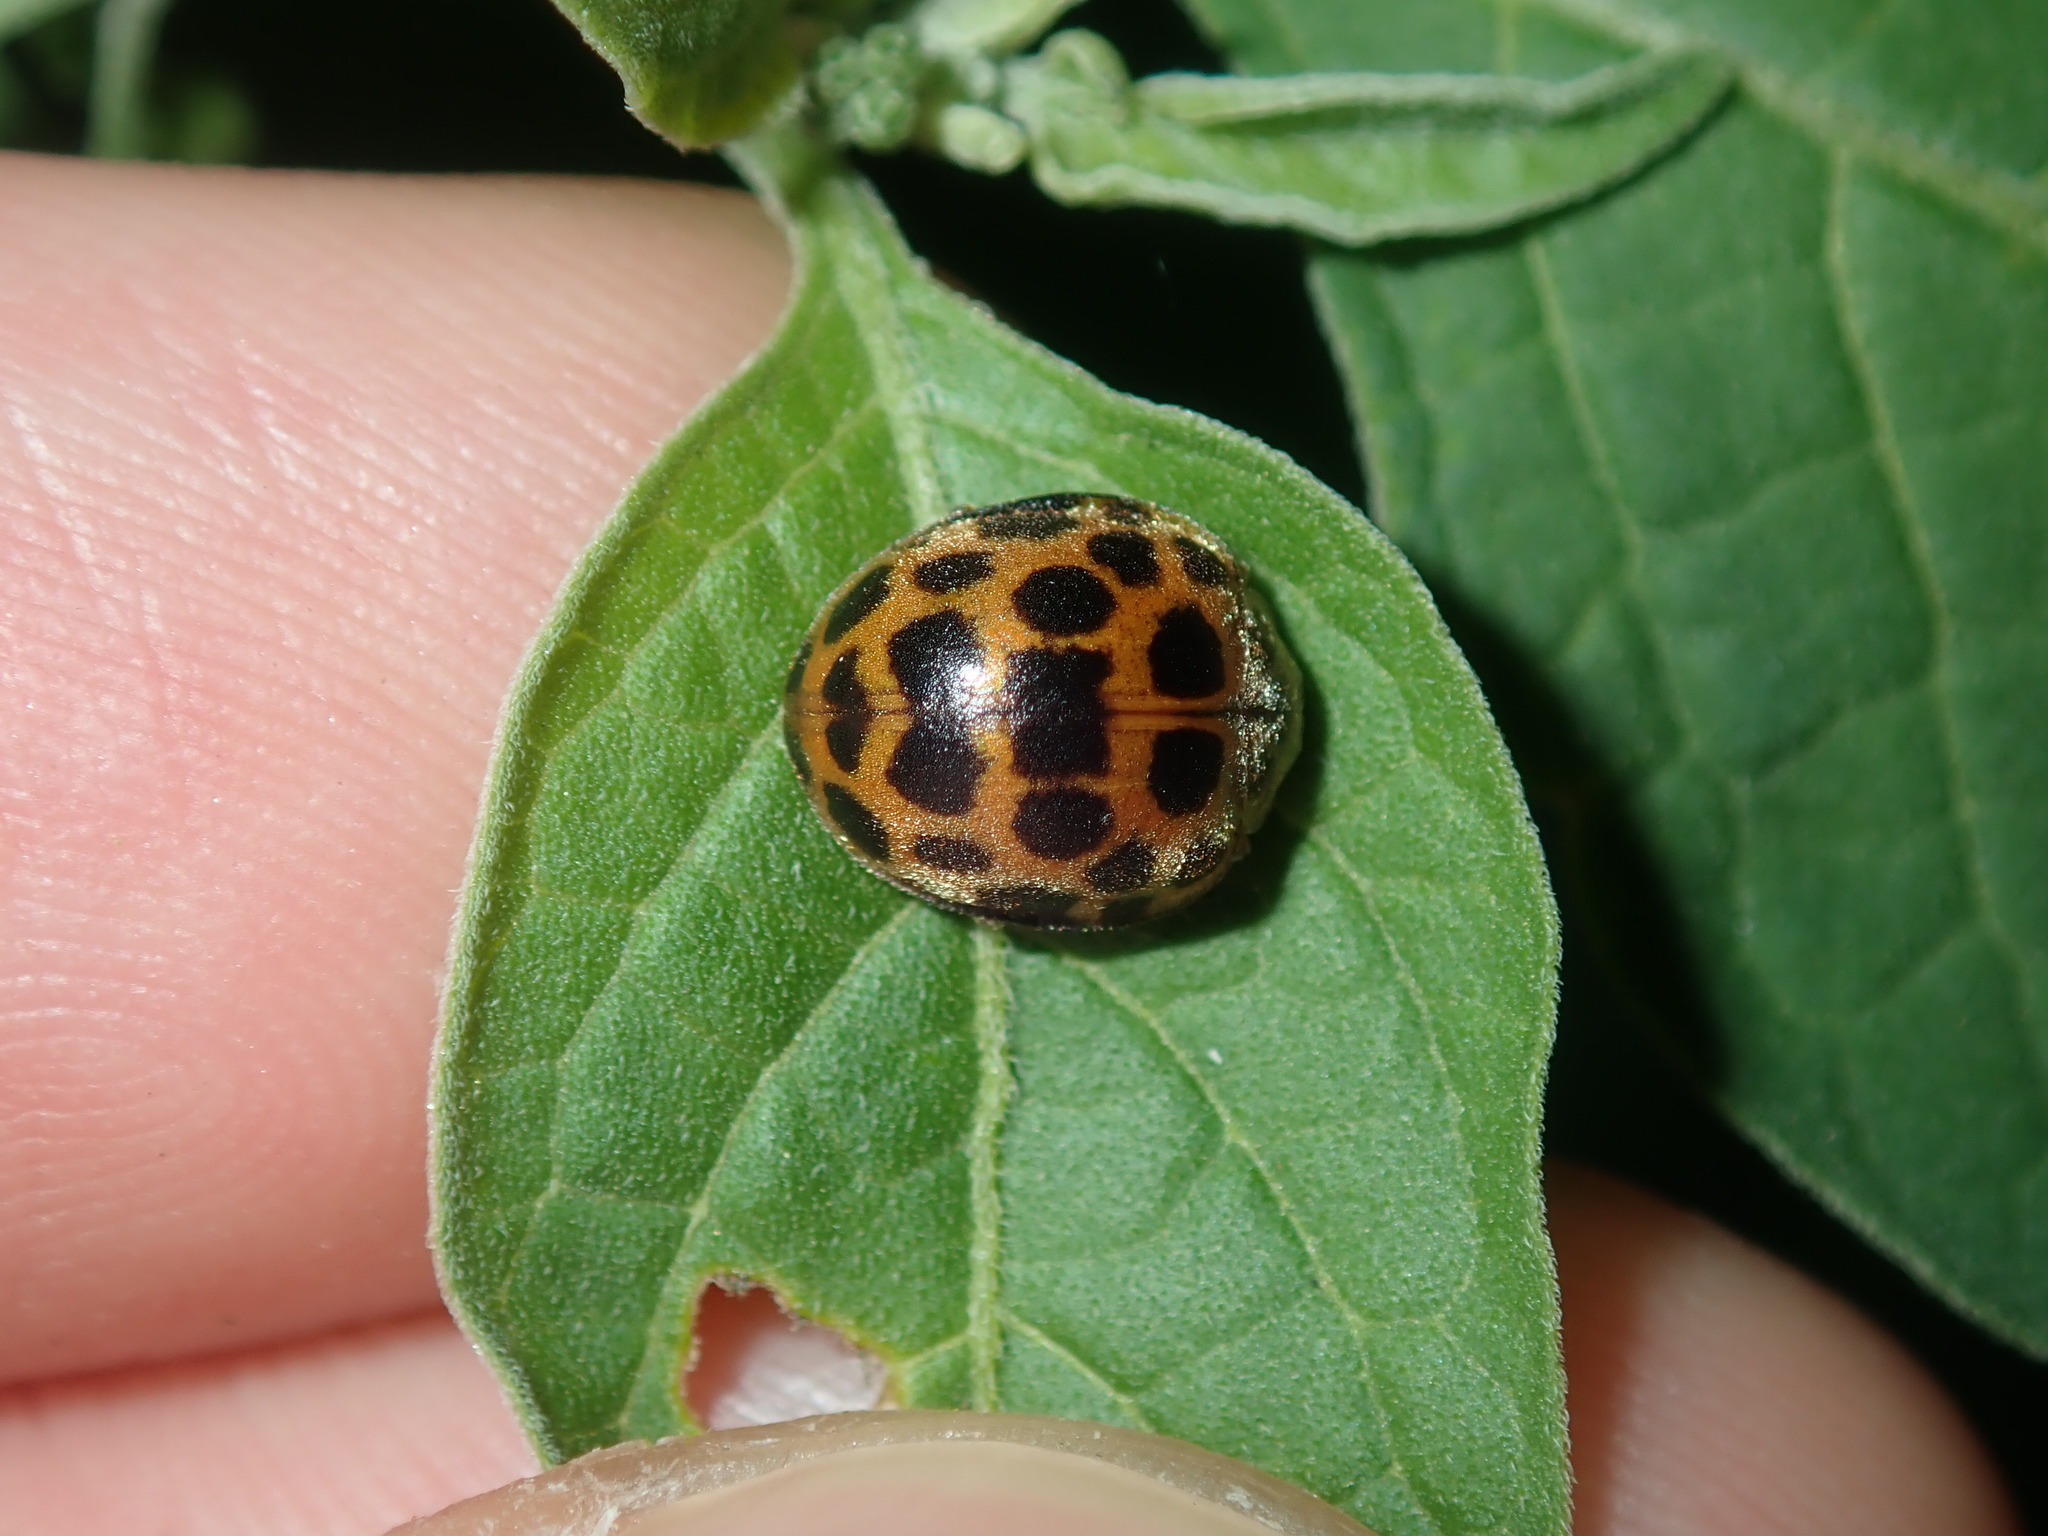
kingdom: Animalia
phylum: Arthropoda
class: Insecta
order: Coleoptera
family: Coccinellidae
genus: Henosepilachna
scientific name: Henosepilachna vigintioctopunctata
